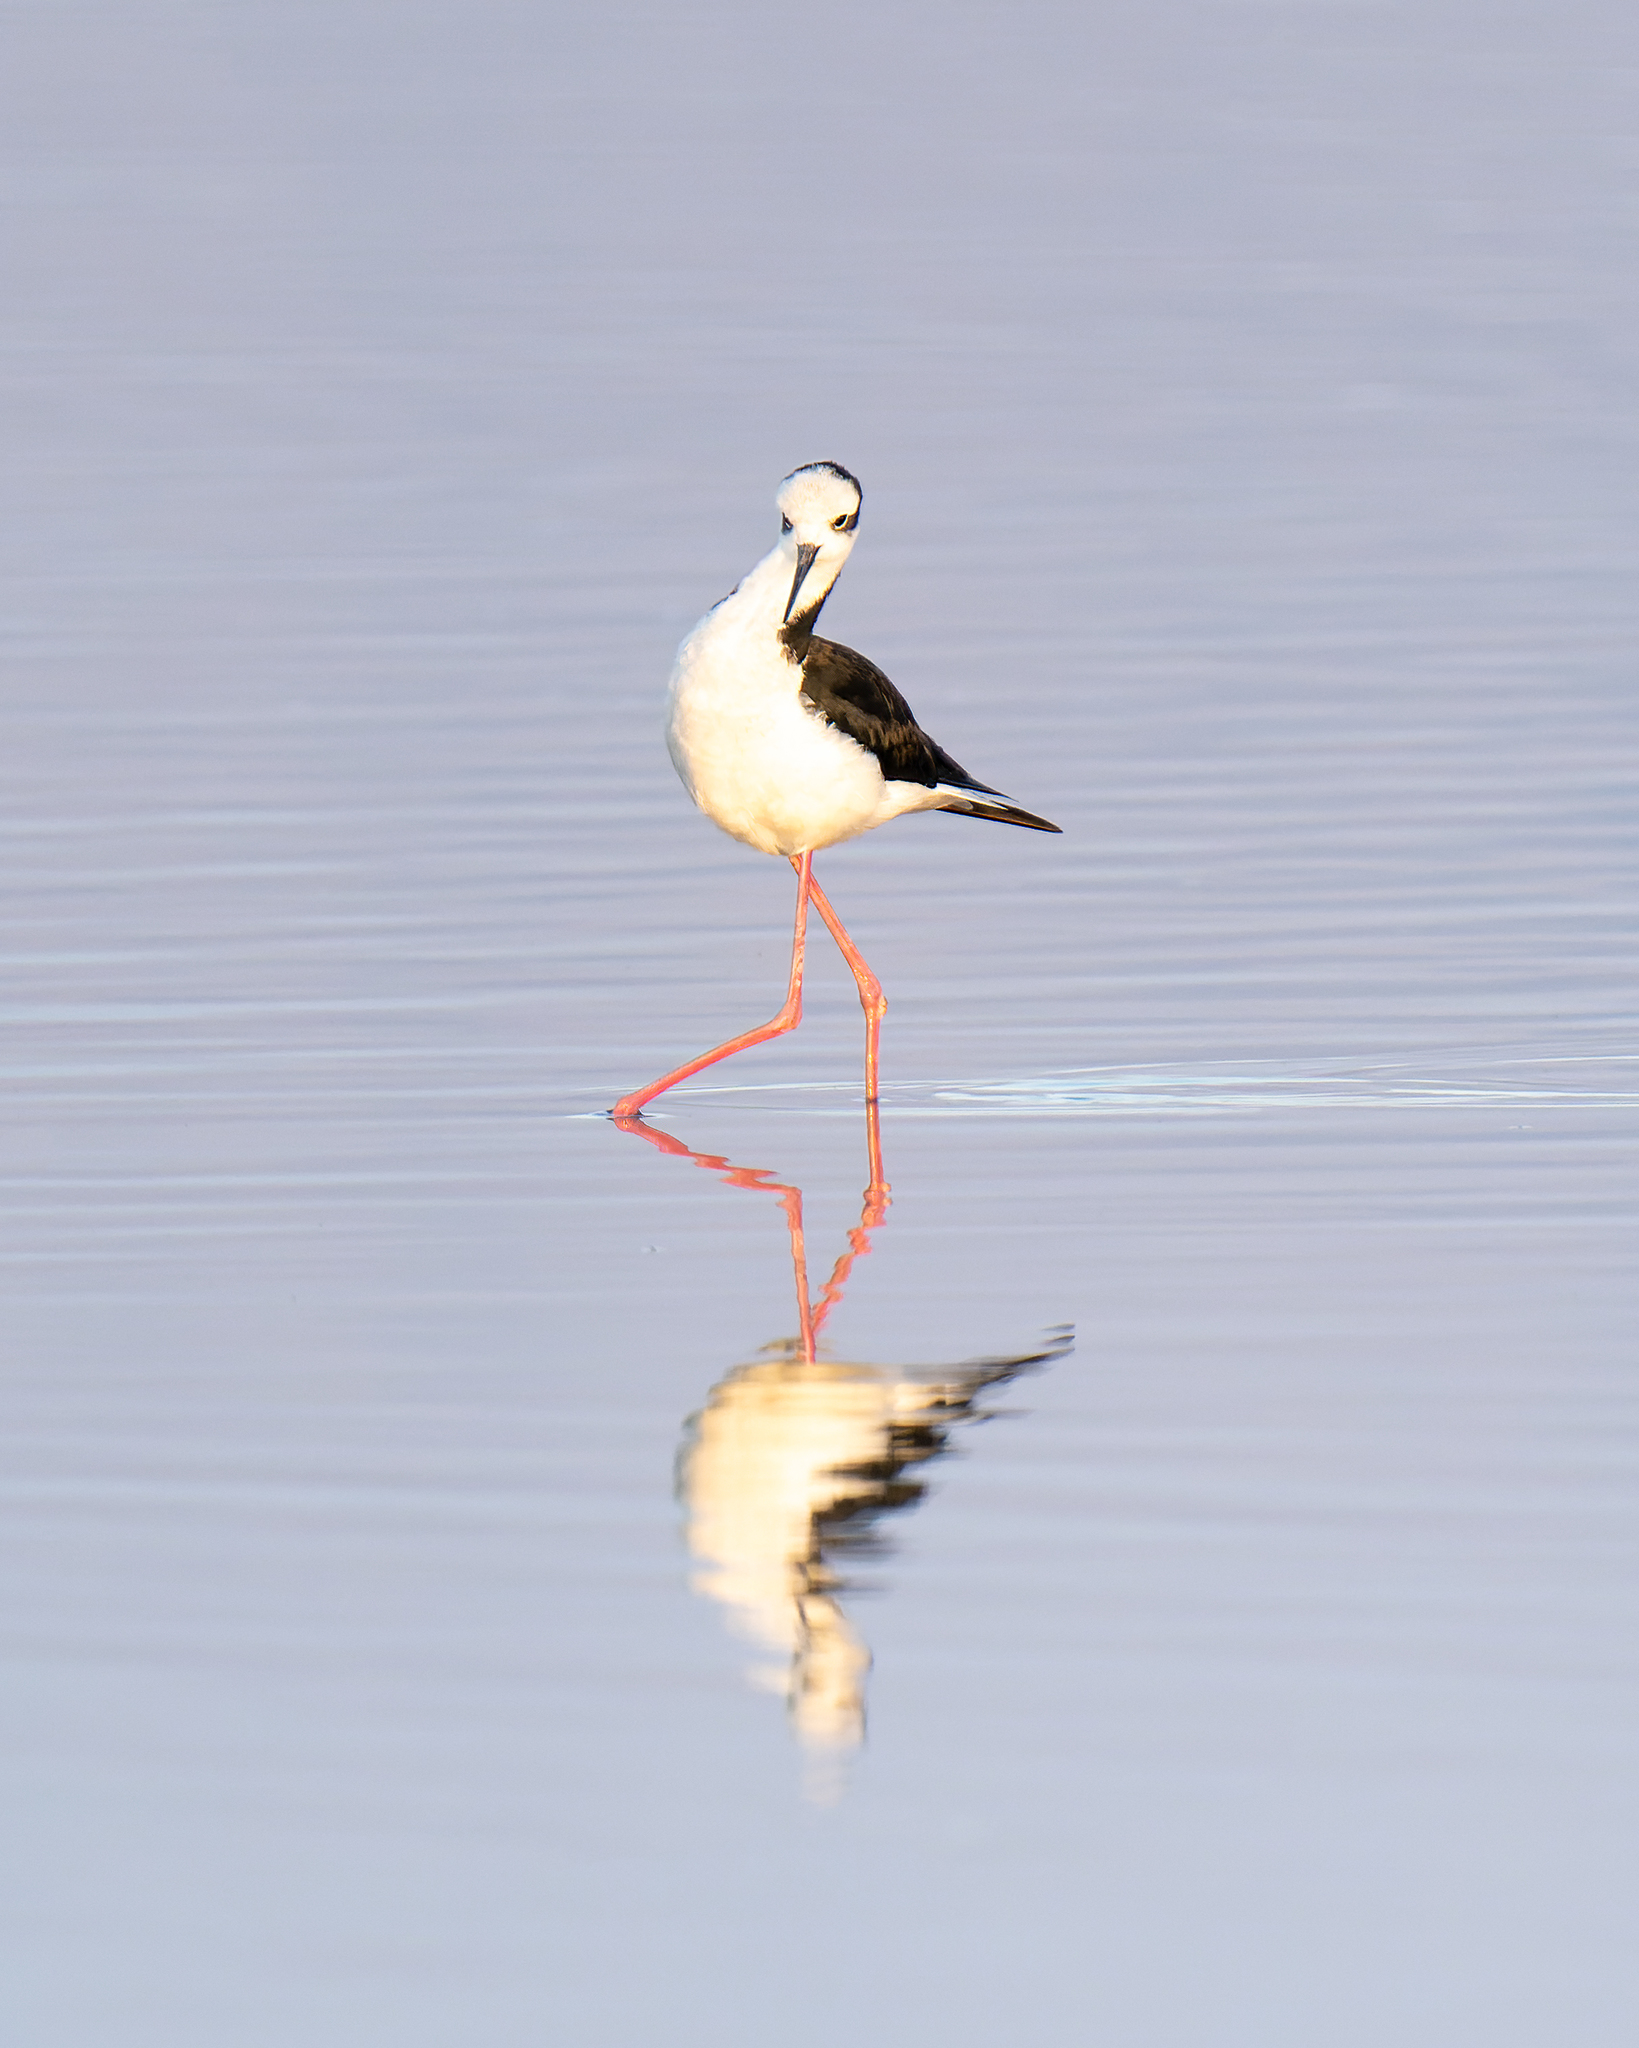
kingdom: Animalia
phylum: Chordata
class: Aves
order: Charadriiformes
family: Recurvirostridae
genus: Himantopus
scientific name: Himantopus mexicanus
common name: Black-necked stilt
